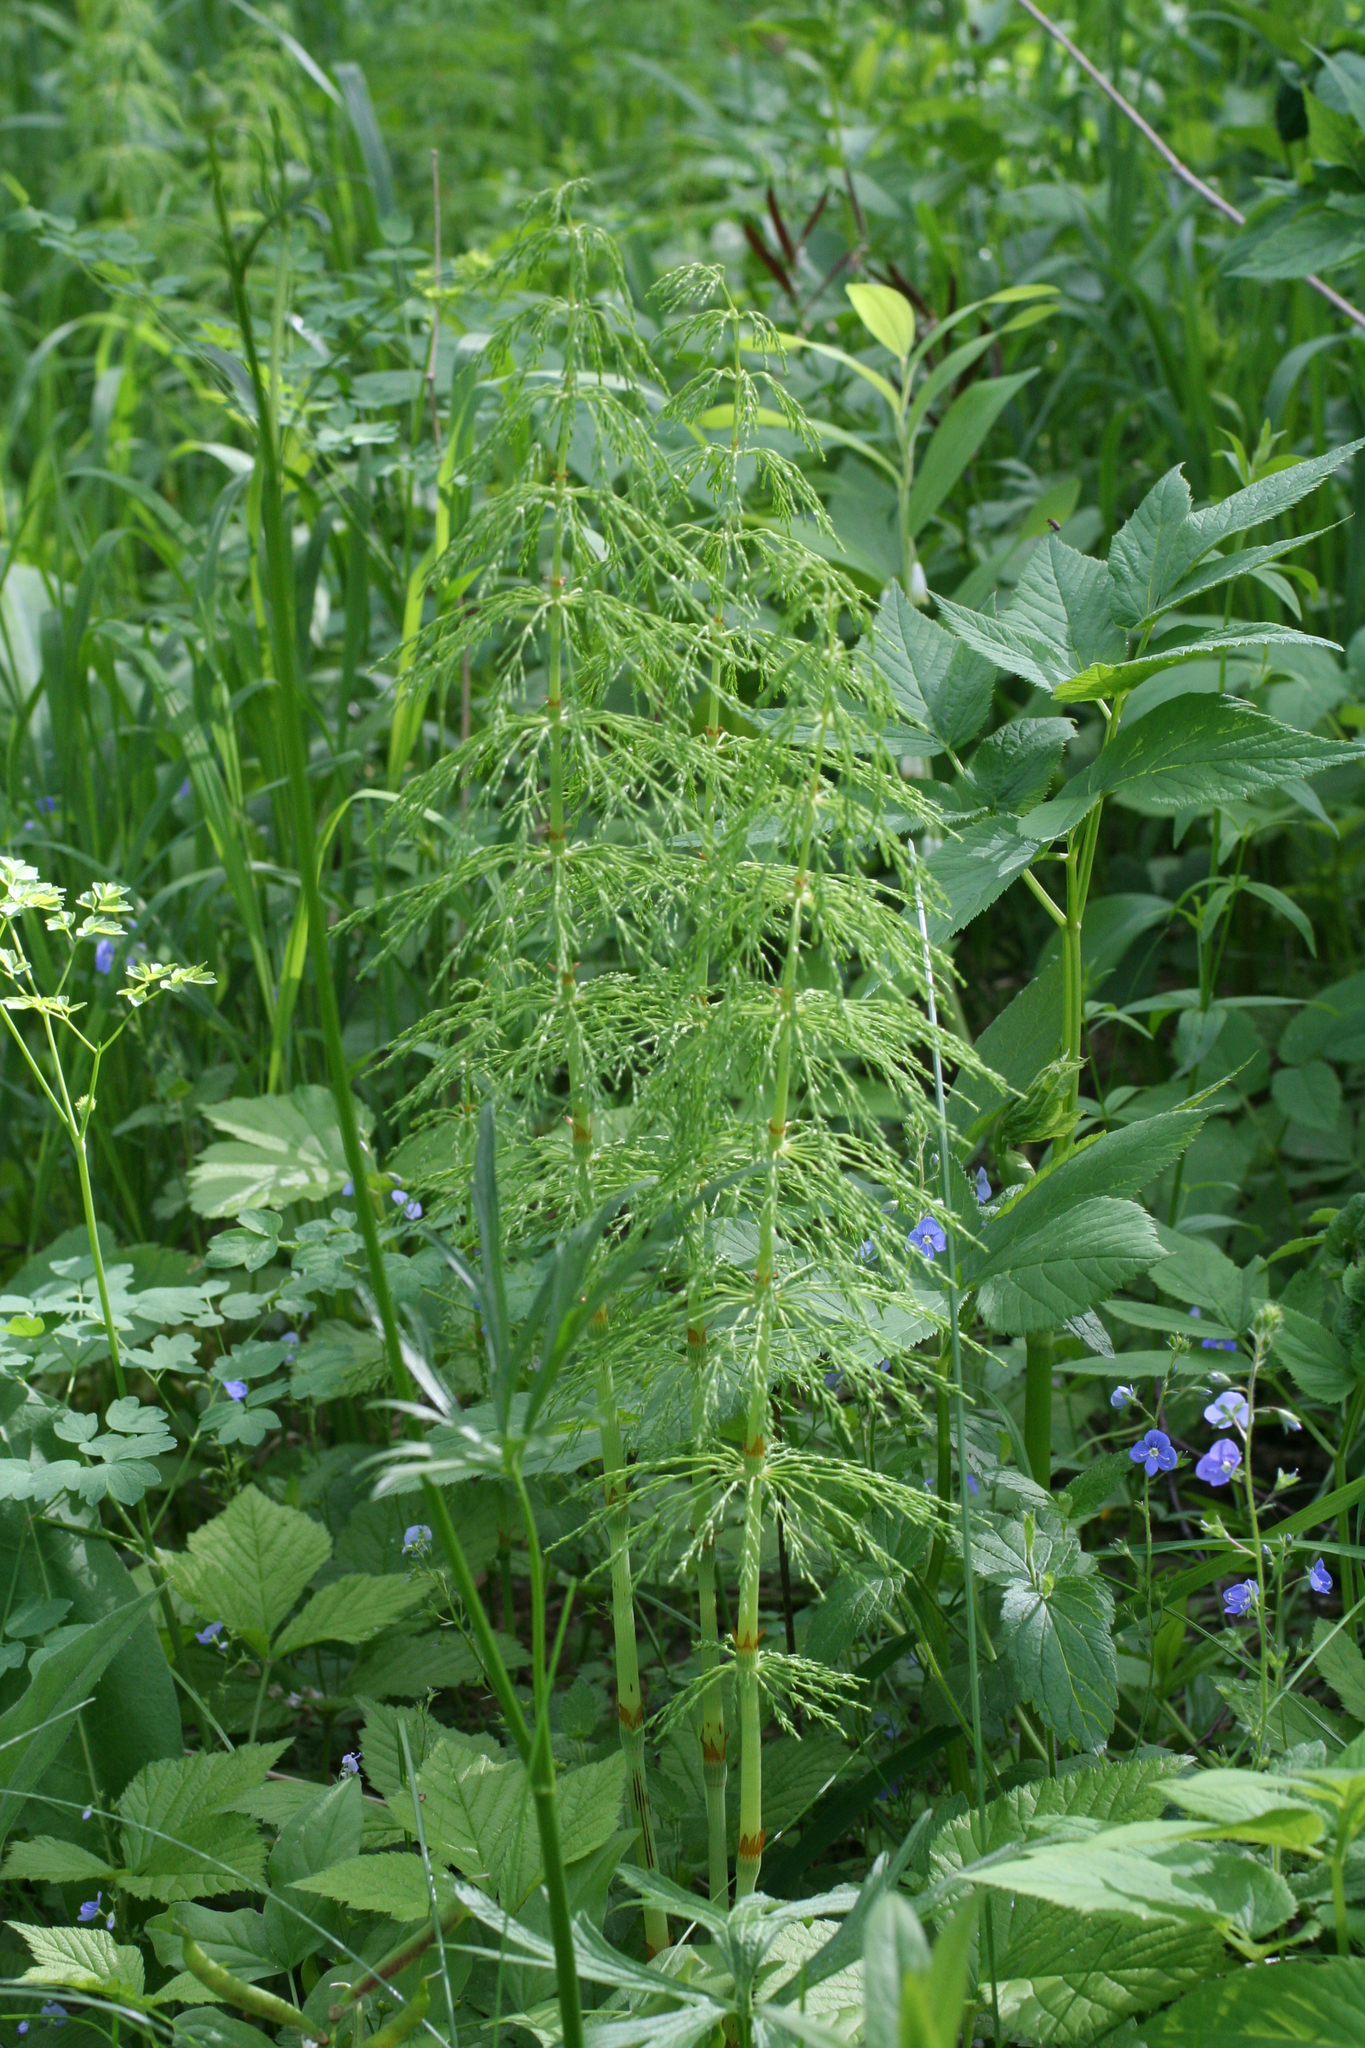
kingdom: Plantae
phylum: Tracheophyta
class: Polypodiopsida
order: Equisetales
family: Equisetaceae
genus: Equisetum
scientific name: Equisetum sylvaticum
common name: Wood horsetail
